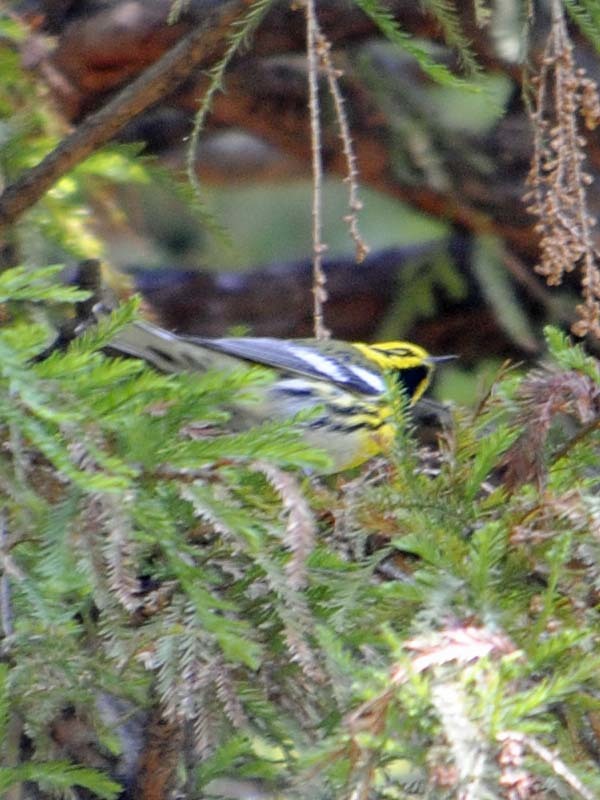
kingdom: Animalia
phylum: Chordata
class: Aves
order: Passeriformes
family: Parulidae
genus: Setophaga
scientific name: Setophaga townsendi
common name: Townsend's warbler
